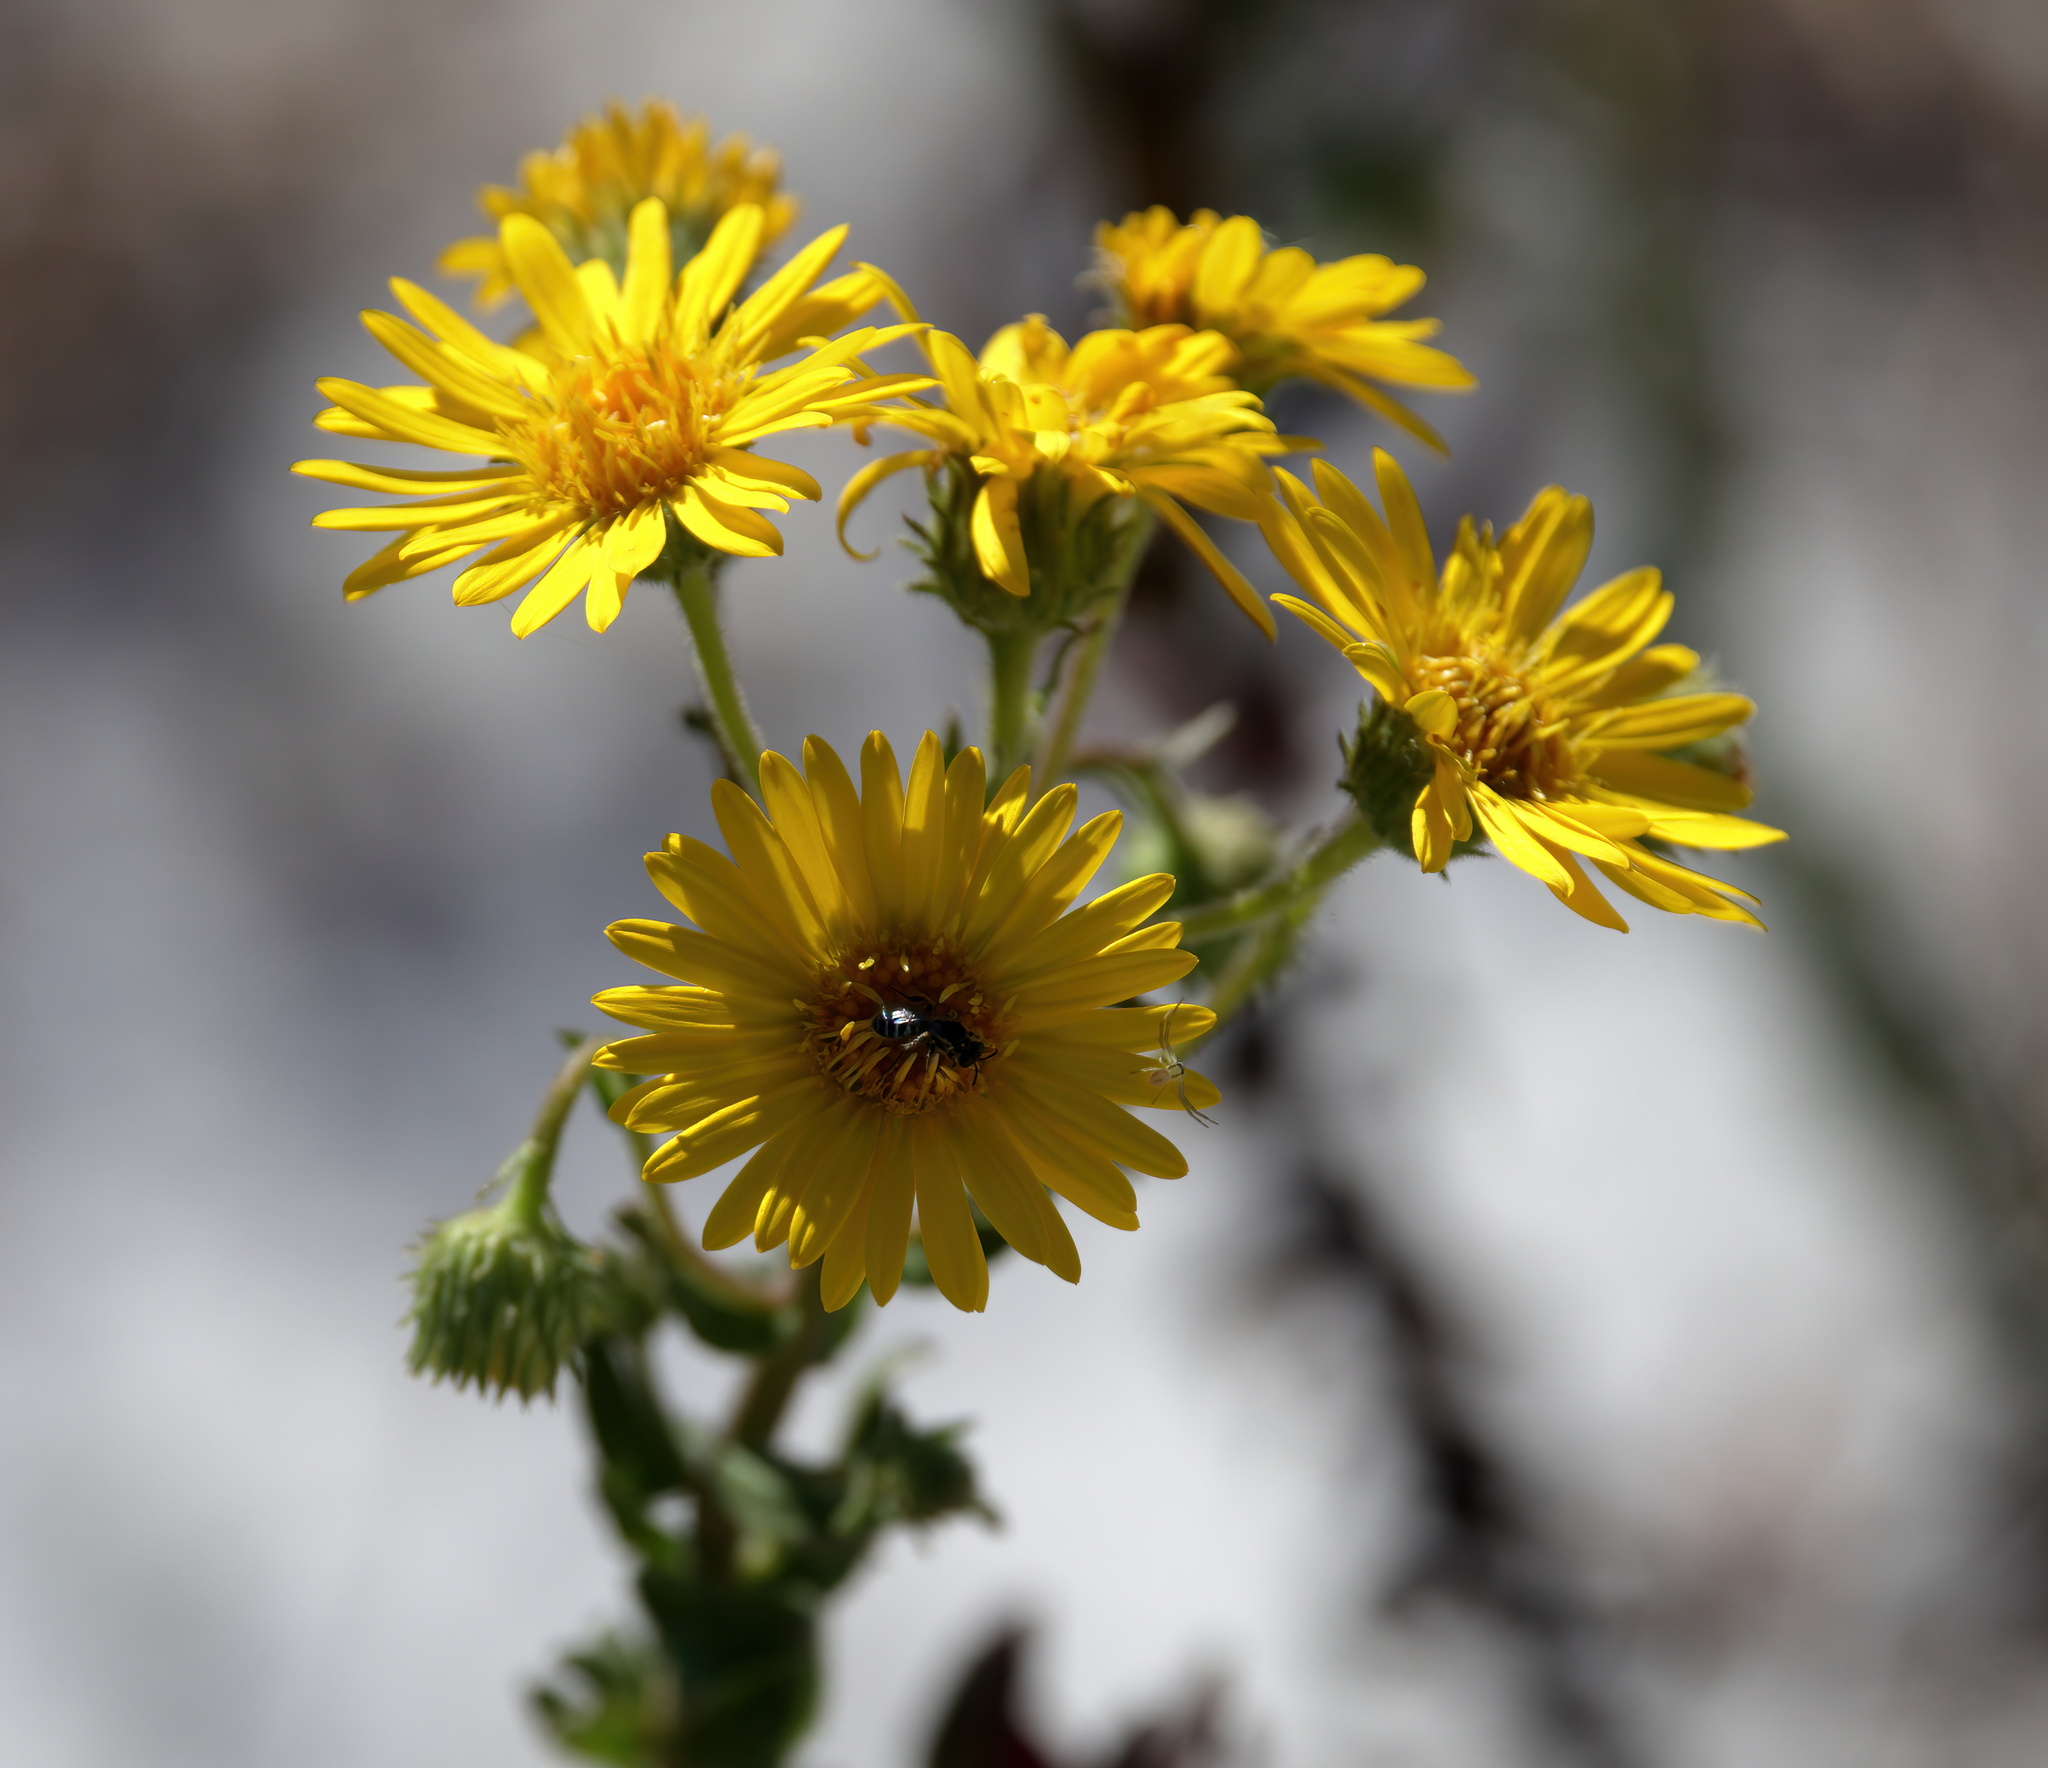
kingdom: Plantae
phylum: Tracheophyta
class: Magnoliopsida
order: Asterales
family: Asteraceae
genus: Chrysopsis
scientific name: Chrysopsis godfreyi
